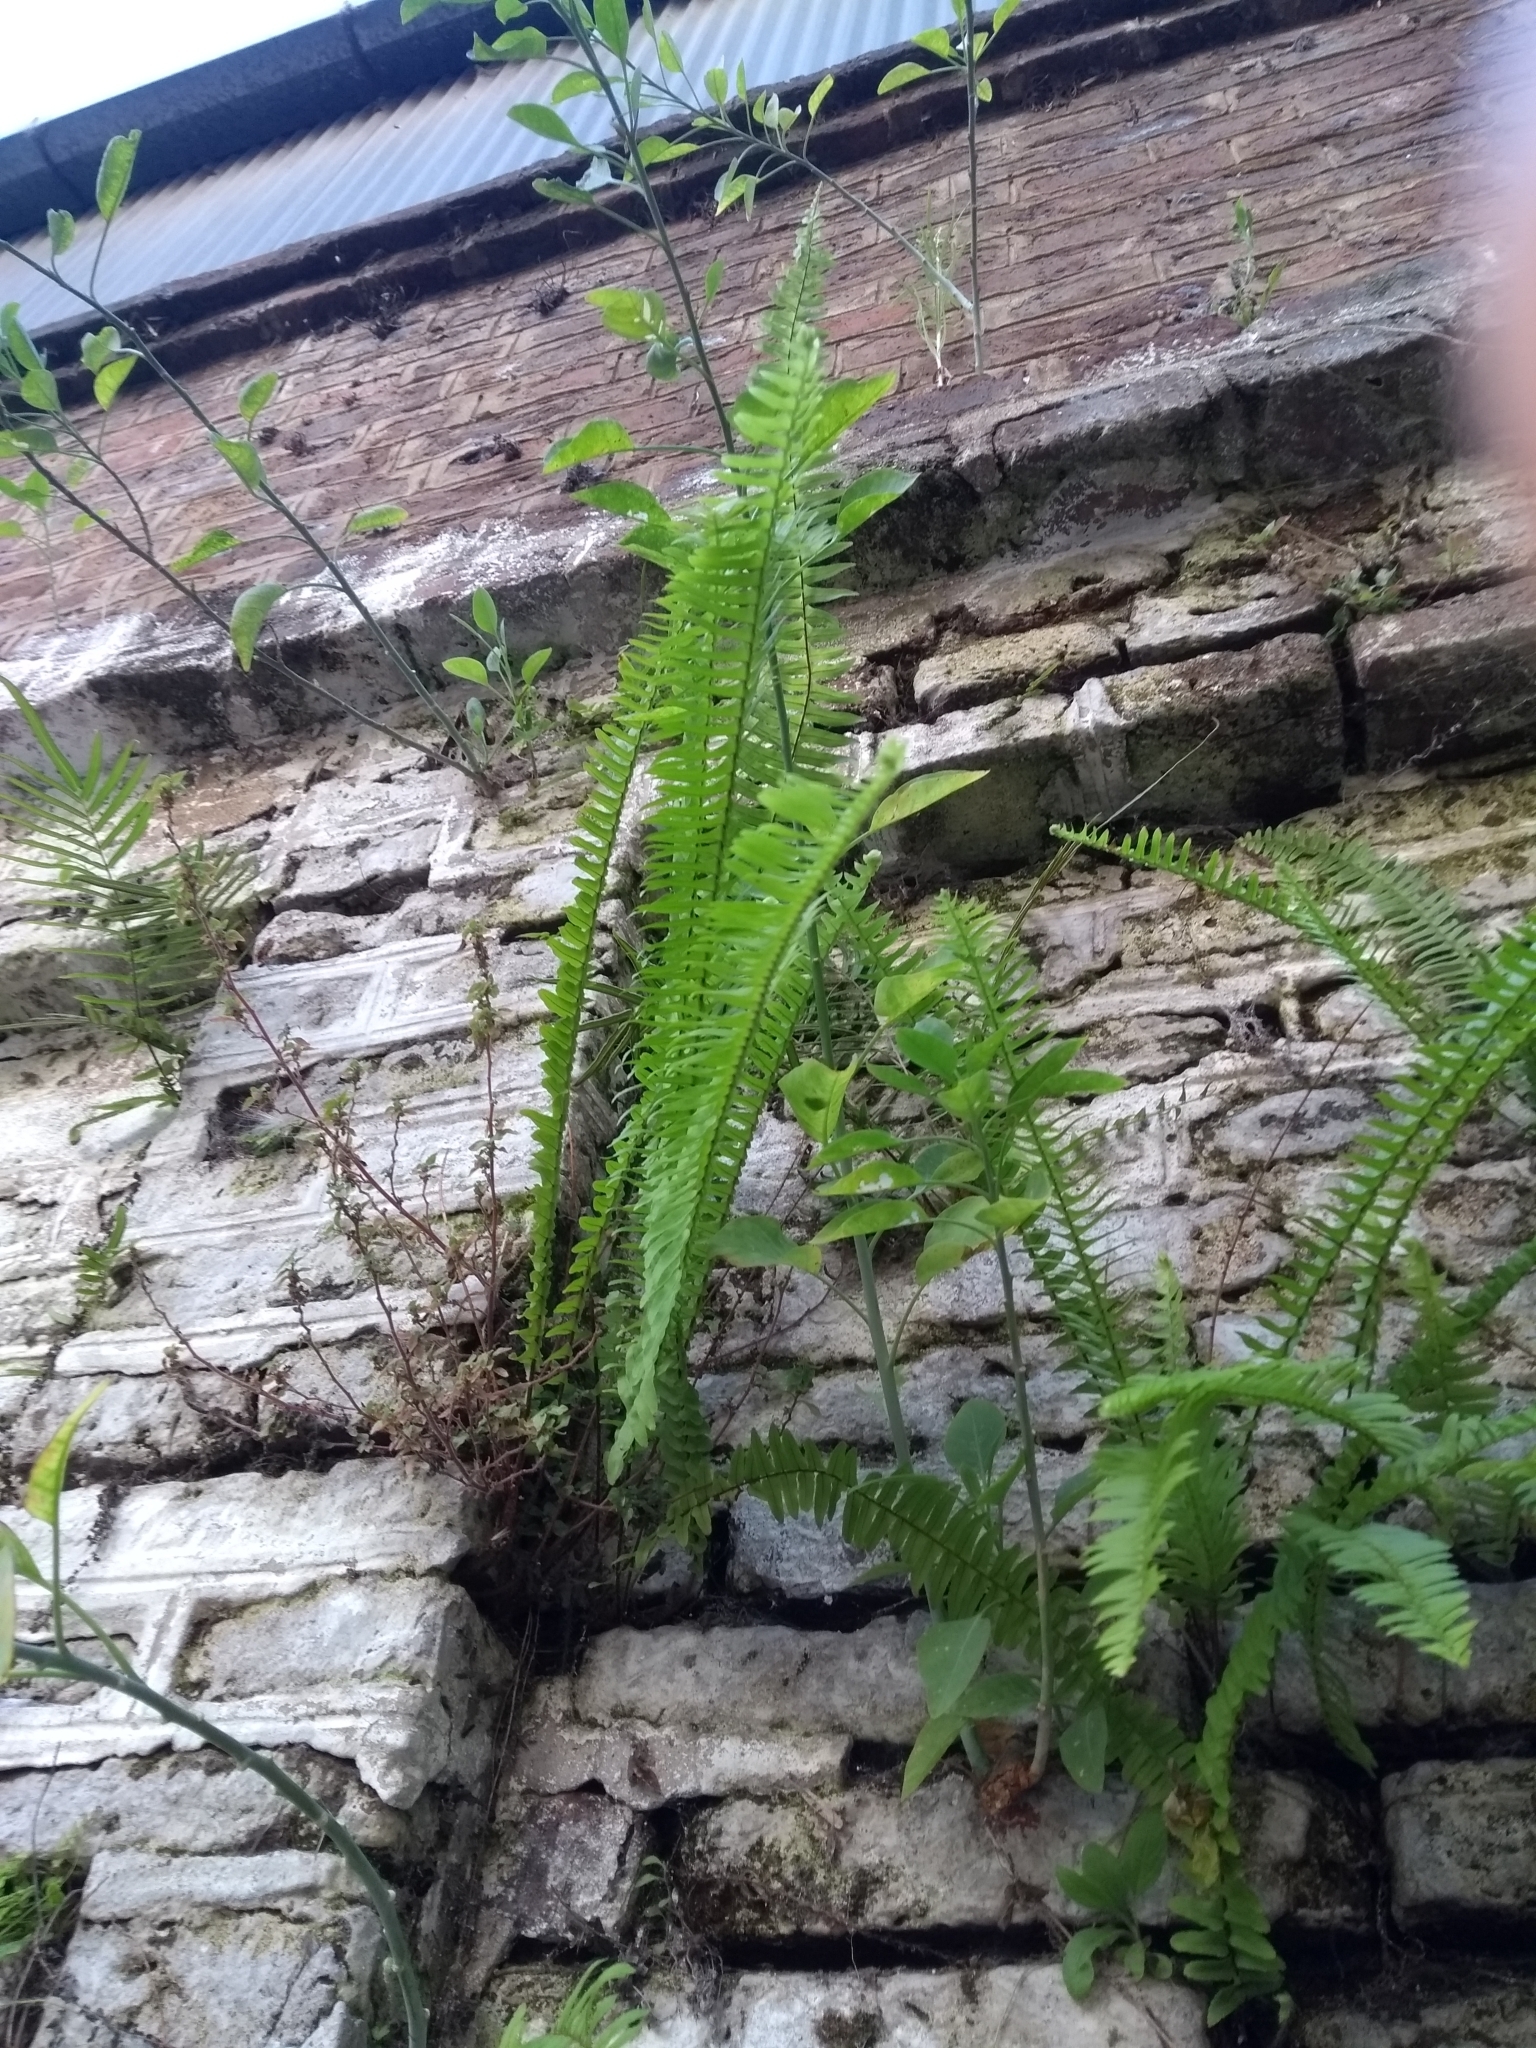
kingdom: Plantae
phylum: Tracheophyta
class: Polypodiopsida
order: Polypodiales
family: Nephrolepidaceae
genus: Nephrolepis
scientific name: Nephrolepis cordifolia
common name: Narrow swordfern
